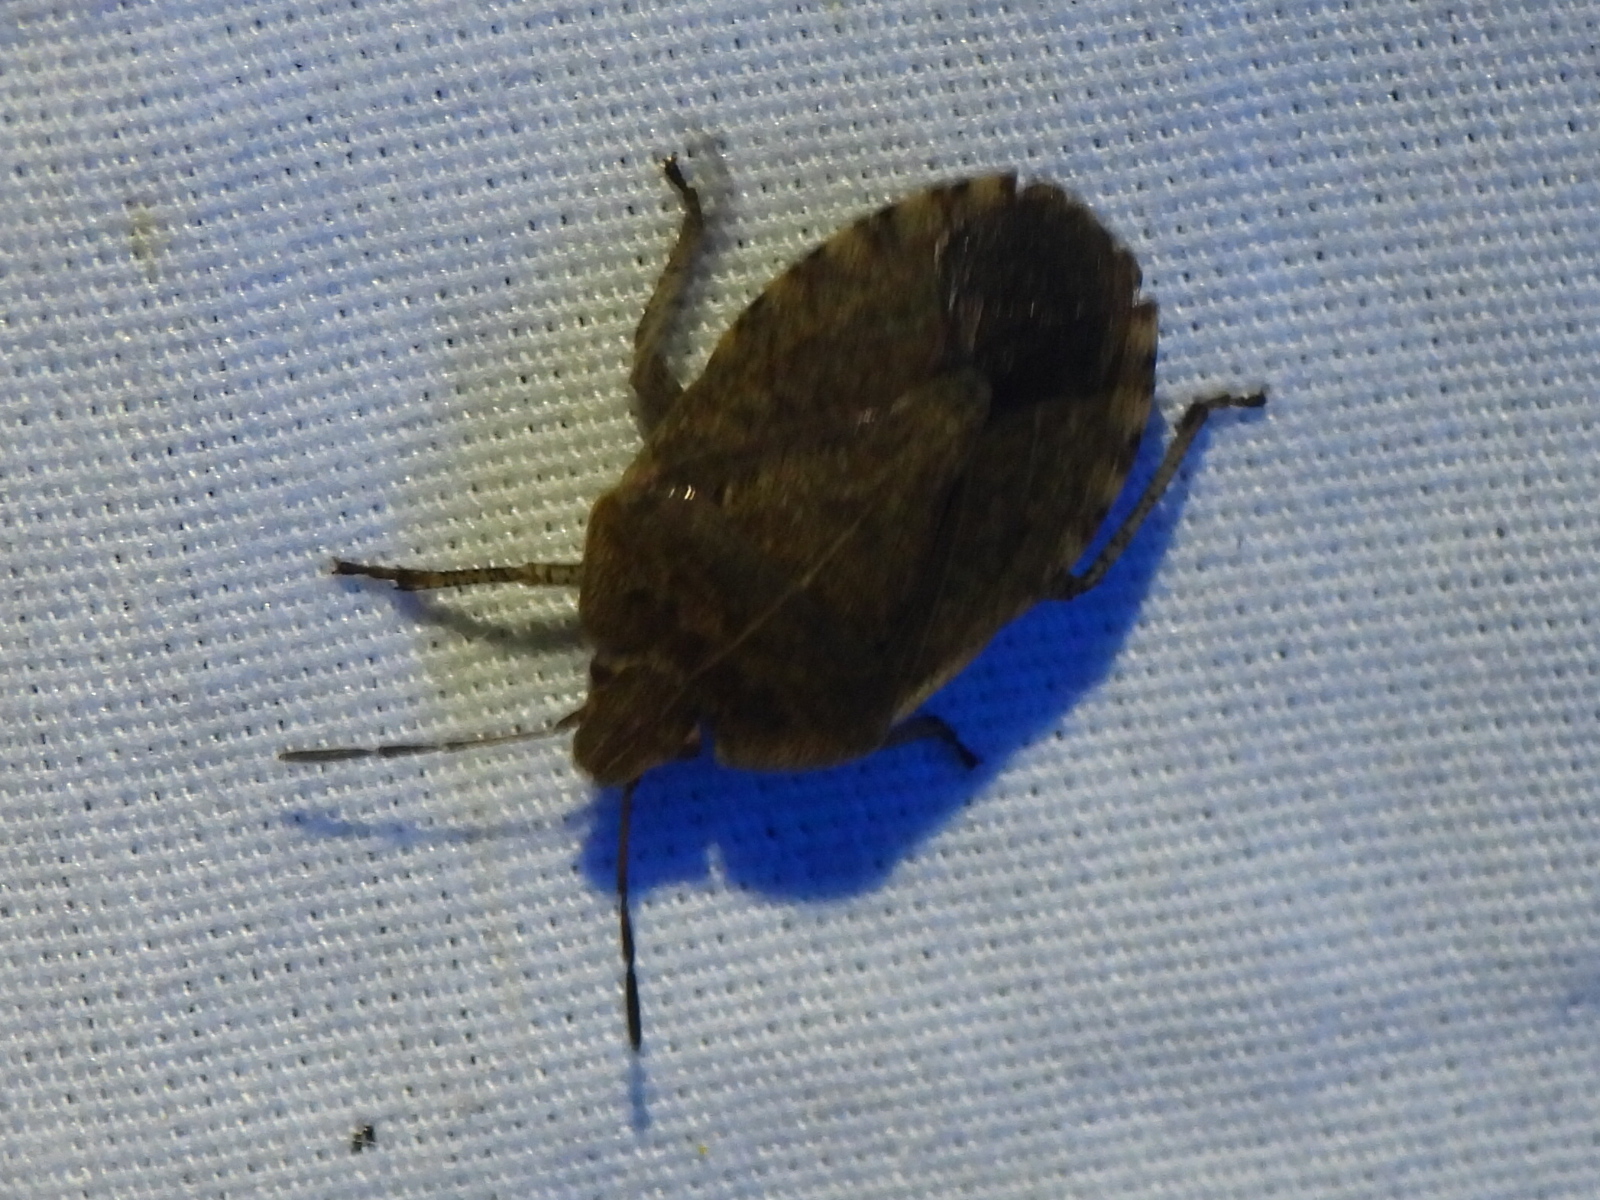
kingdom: Animalia
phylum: Arthropoda
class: Insecta
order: Hemiptera
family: Pentatomidae
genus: Menecles
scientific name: Menecles insertus
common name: Elf shoe stink bug
